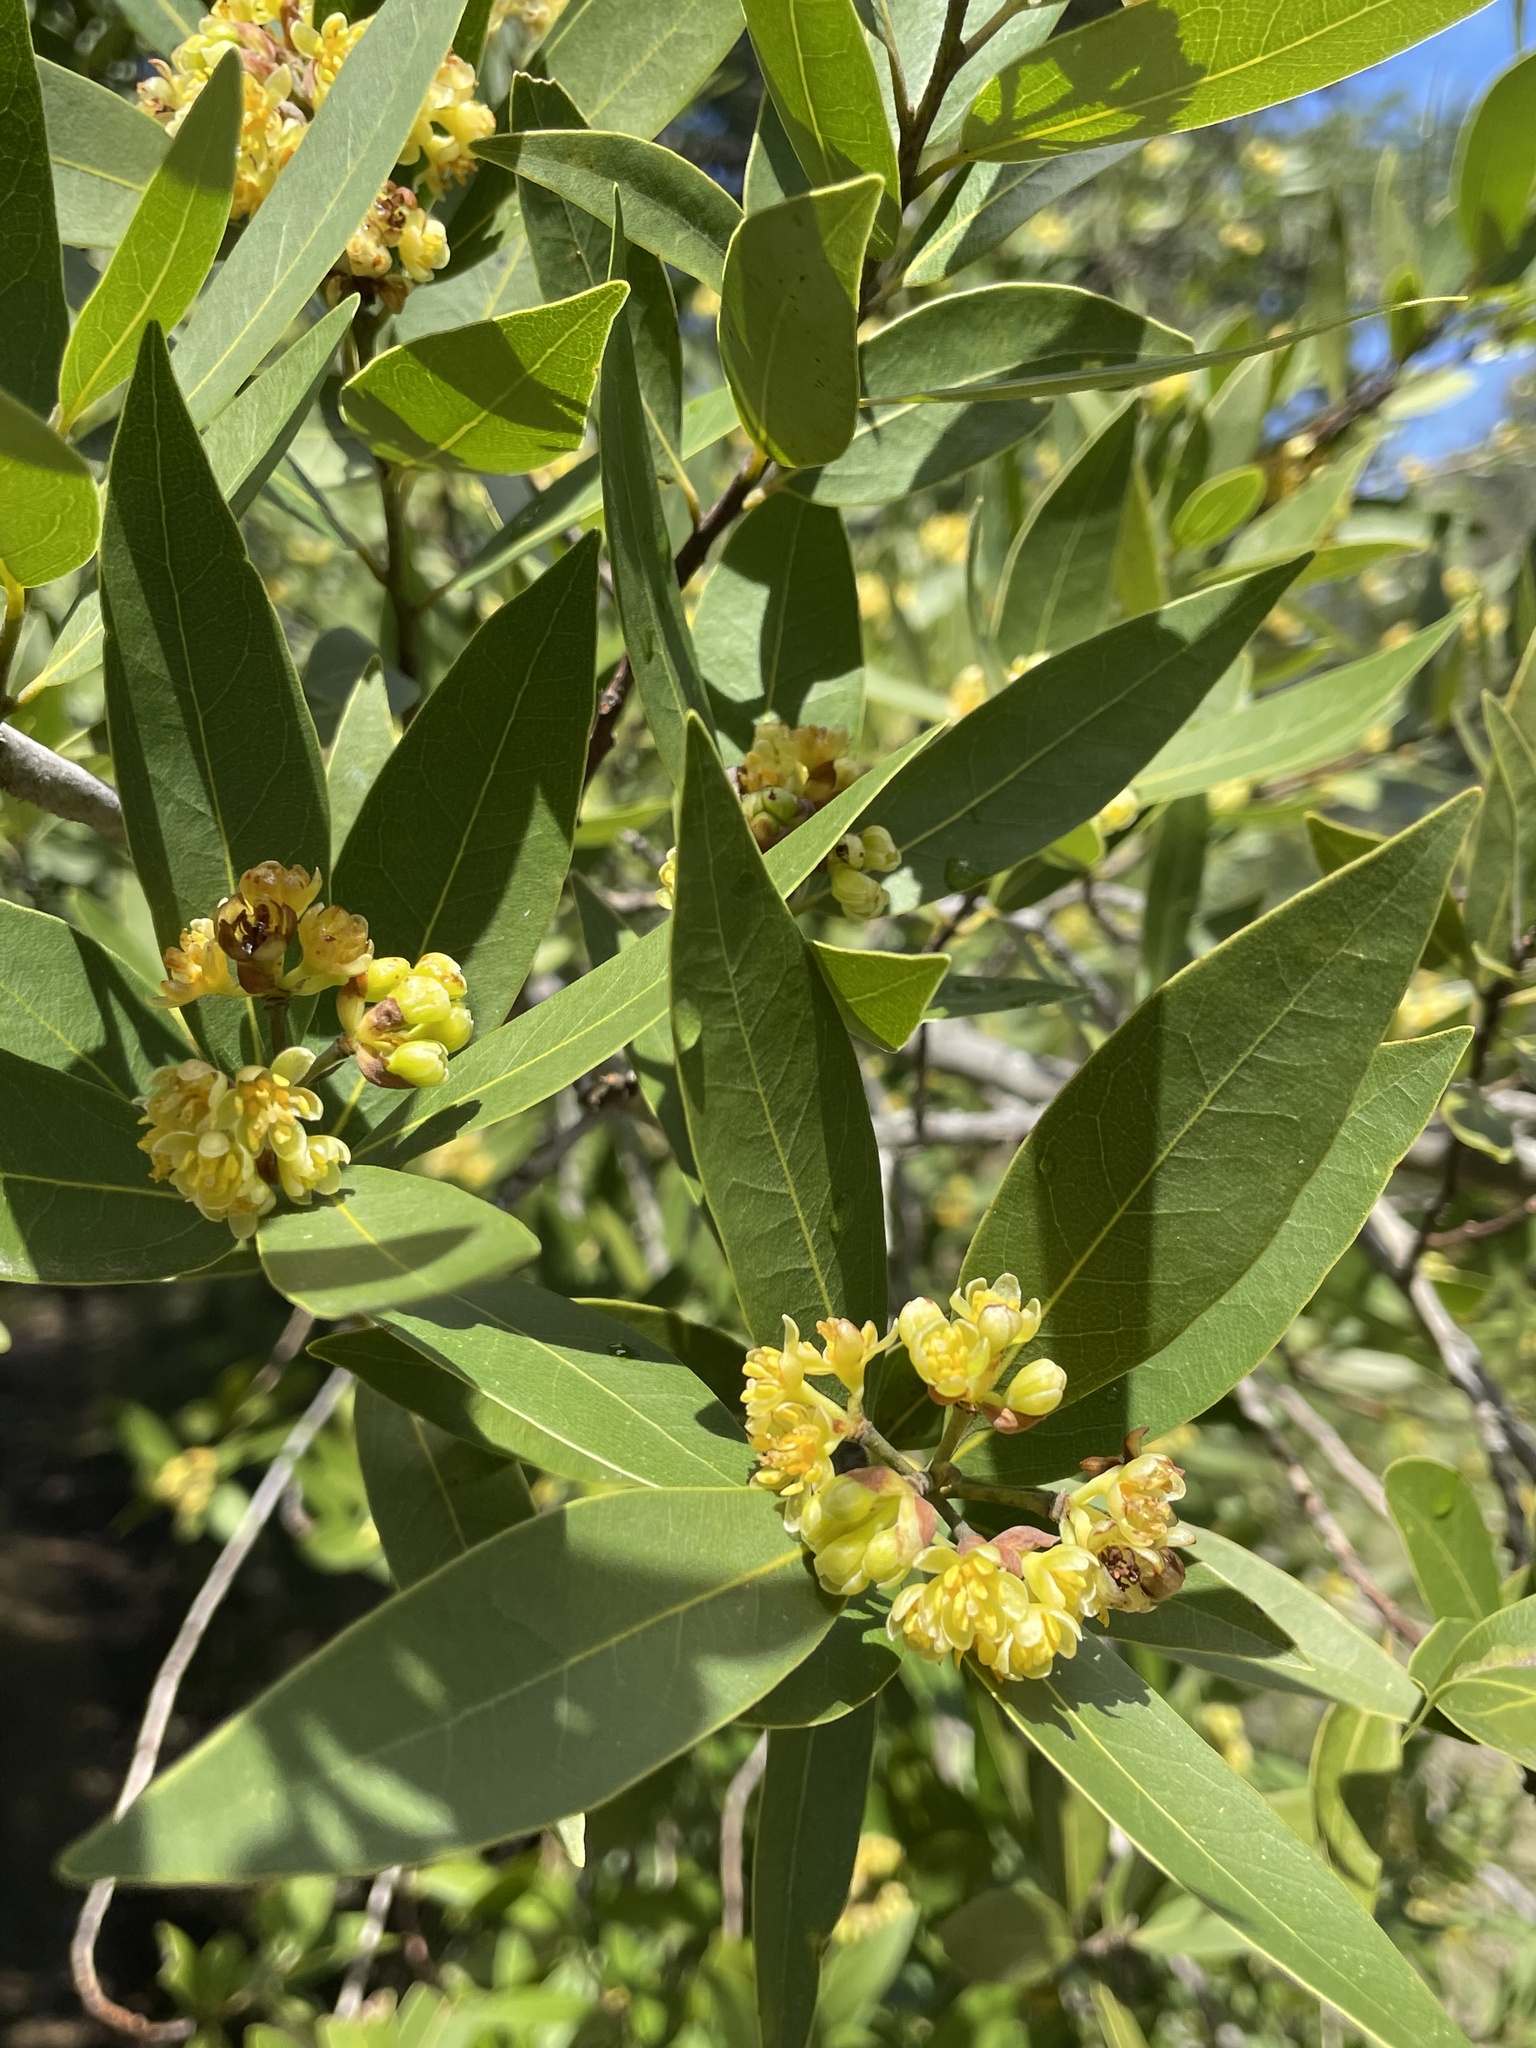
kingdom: Plantae
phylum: Tracheophyta
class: Magnoliopsida
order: Laurales
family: Lauraceae
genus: Umbellularia
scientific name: Umbellularia californica
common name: California bay
